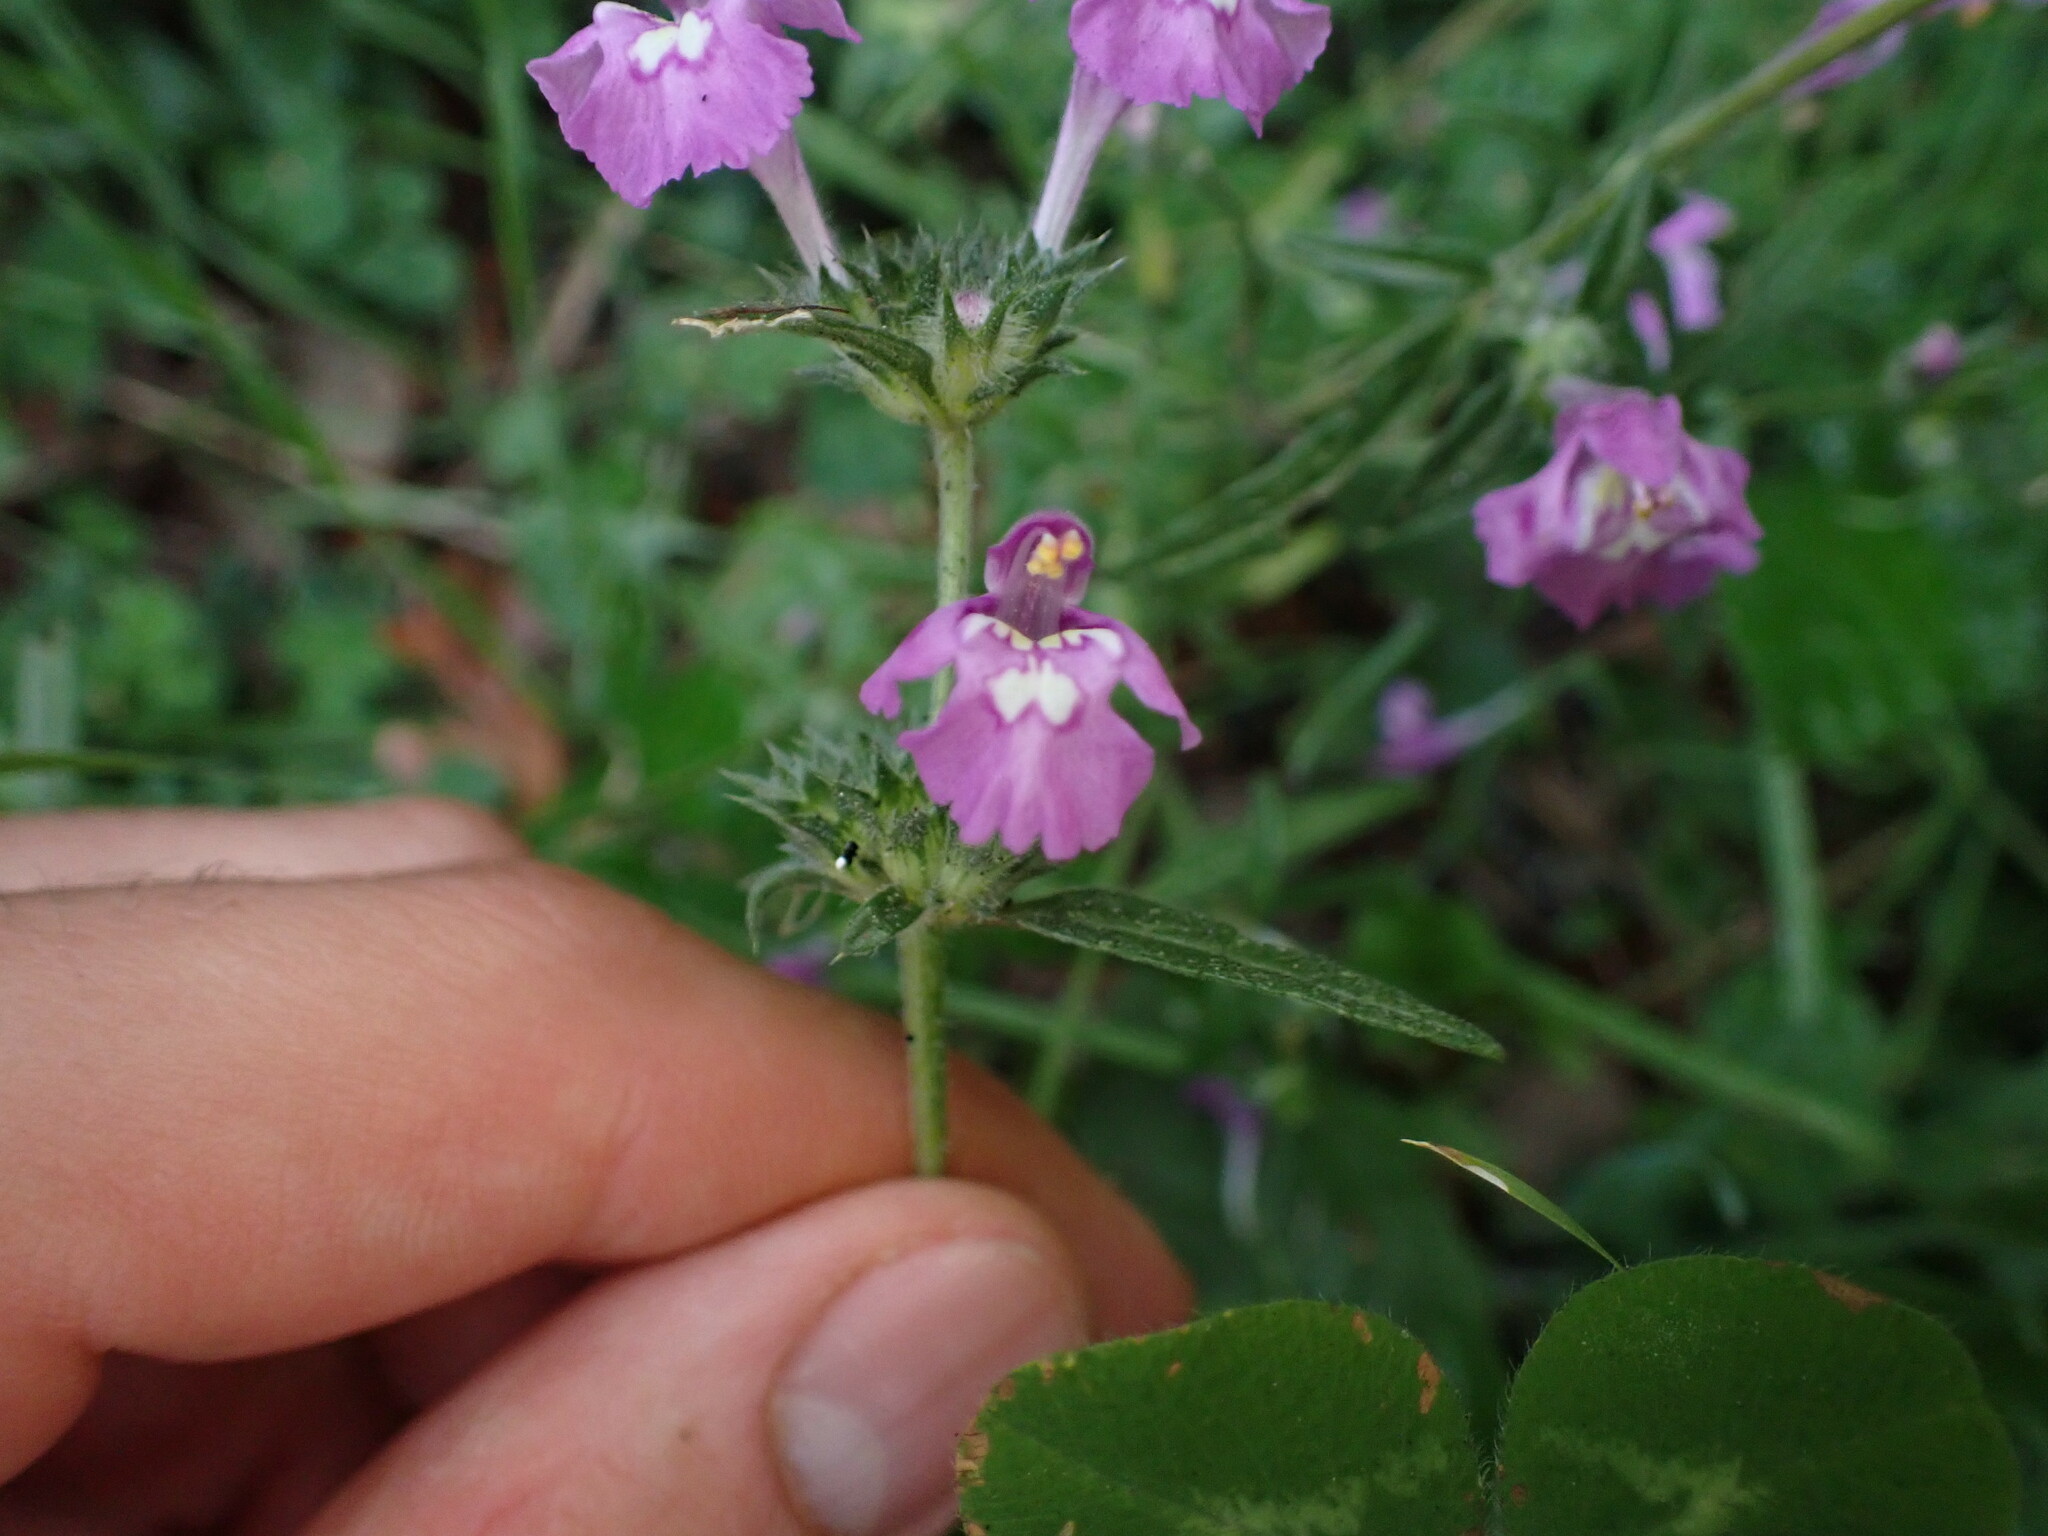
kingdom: Plantae
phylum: Tracheophyta
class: Magnoliopsida
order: Lamiales
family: Lamiaceae
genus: Galeopsis
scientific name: Galeopsis angustifolia
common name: Red hemp-nettle
